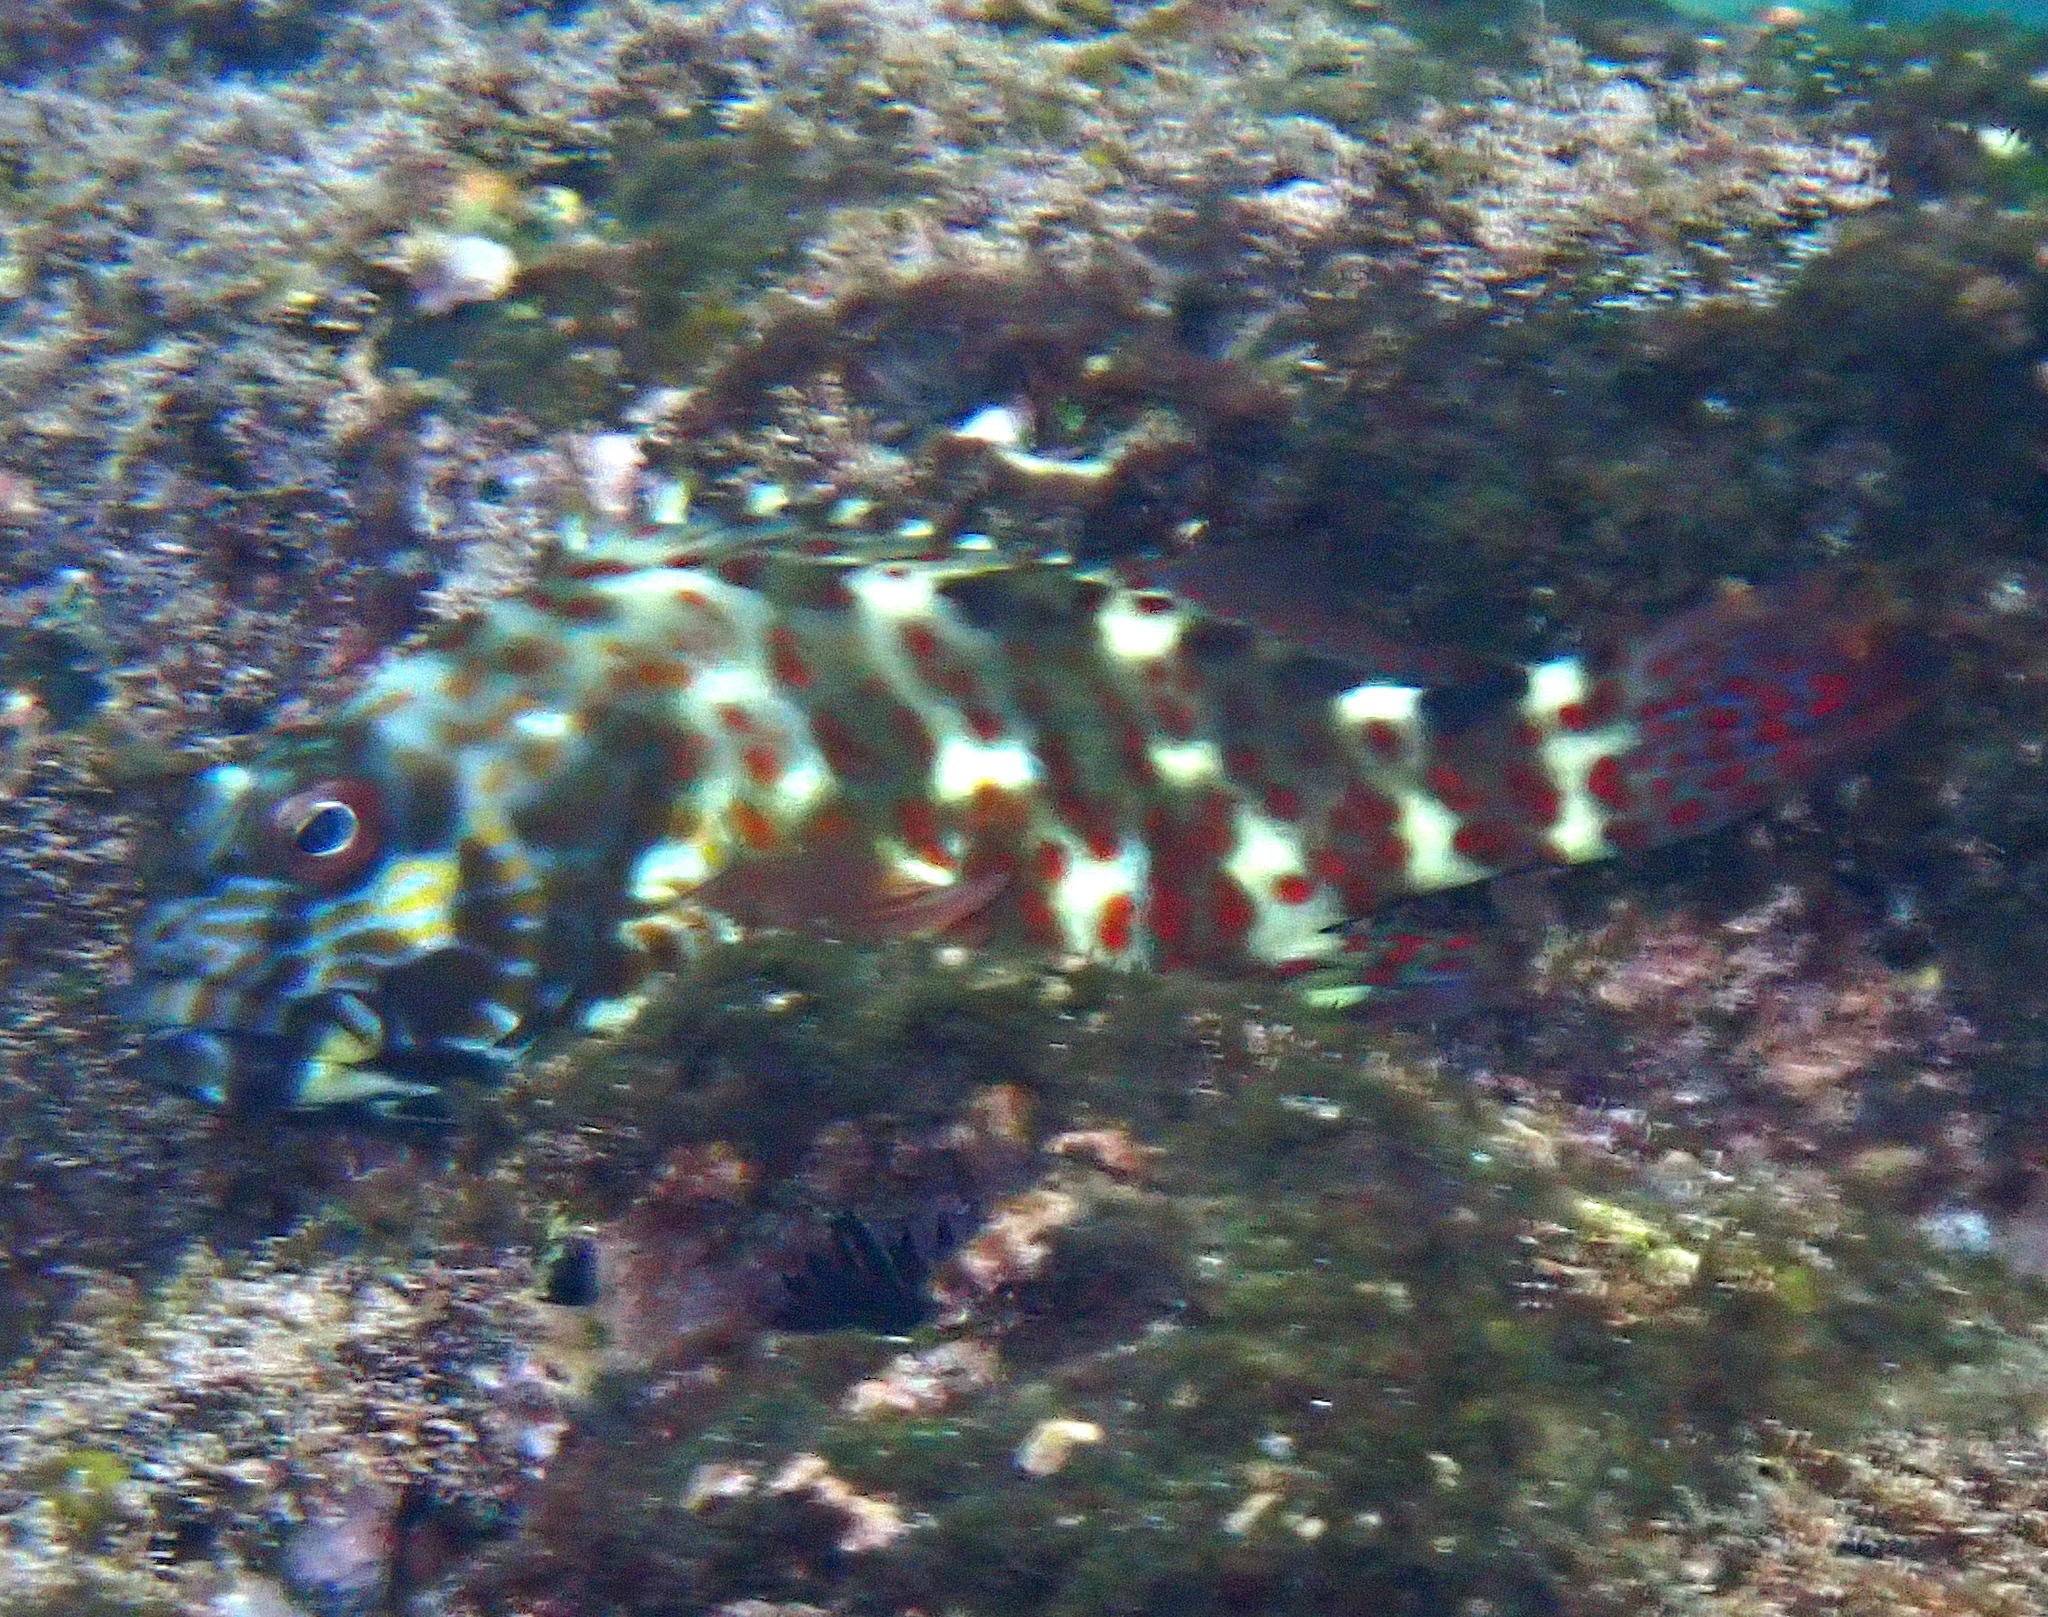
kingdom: Animalia
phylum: Chordata
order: Perciformes
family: Cirrhitidae
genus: Cirrhitus
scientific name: Cirrhitus pinnulatus
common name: Stocky hawkfish
